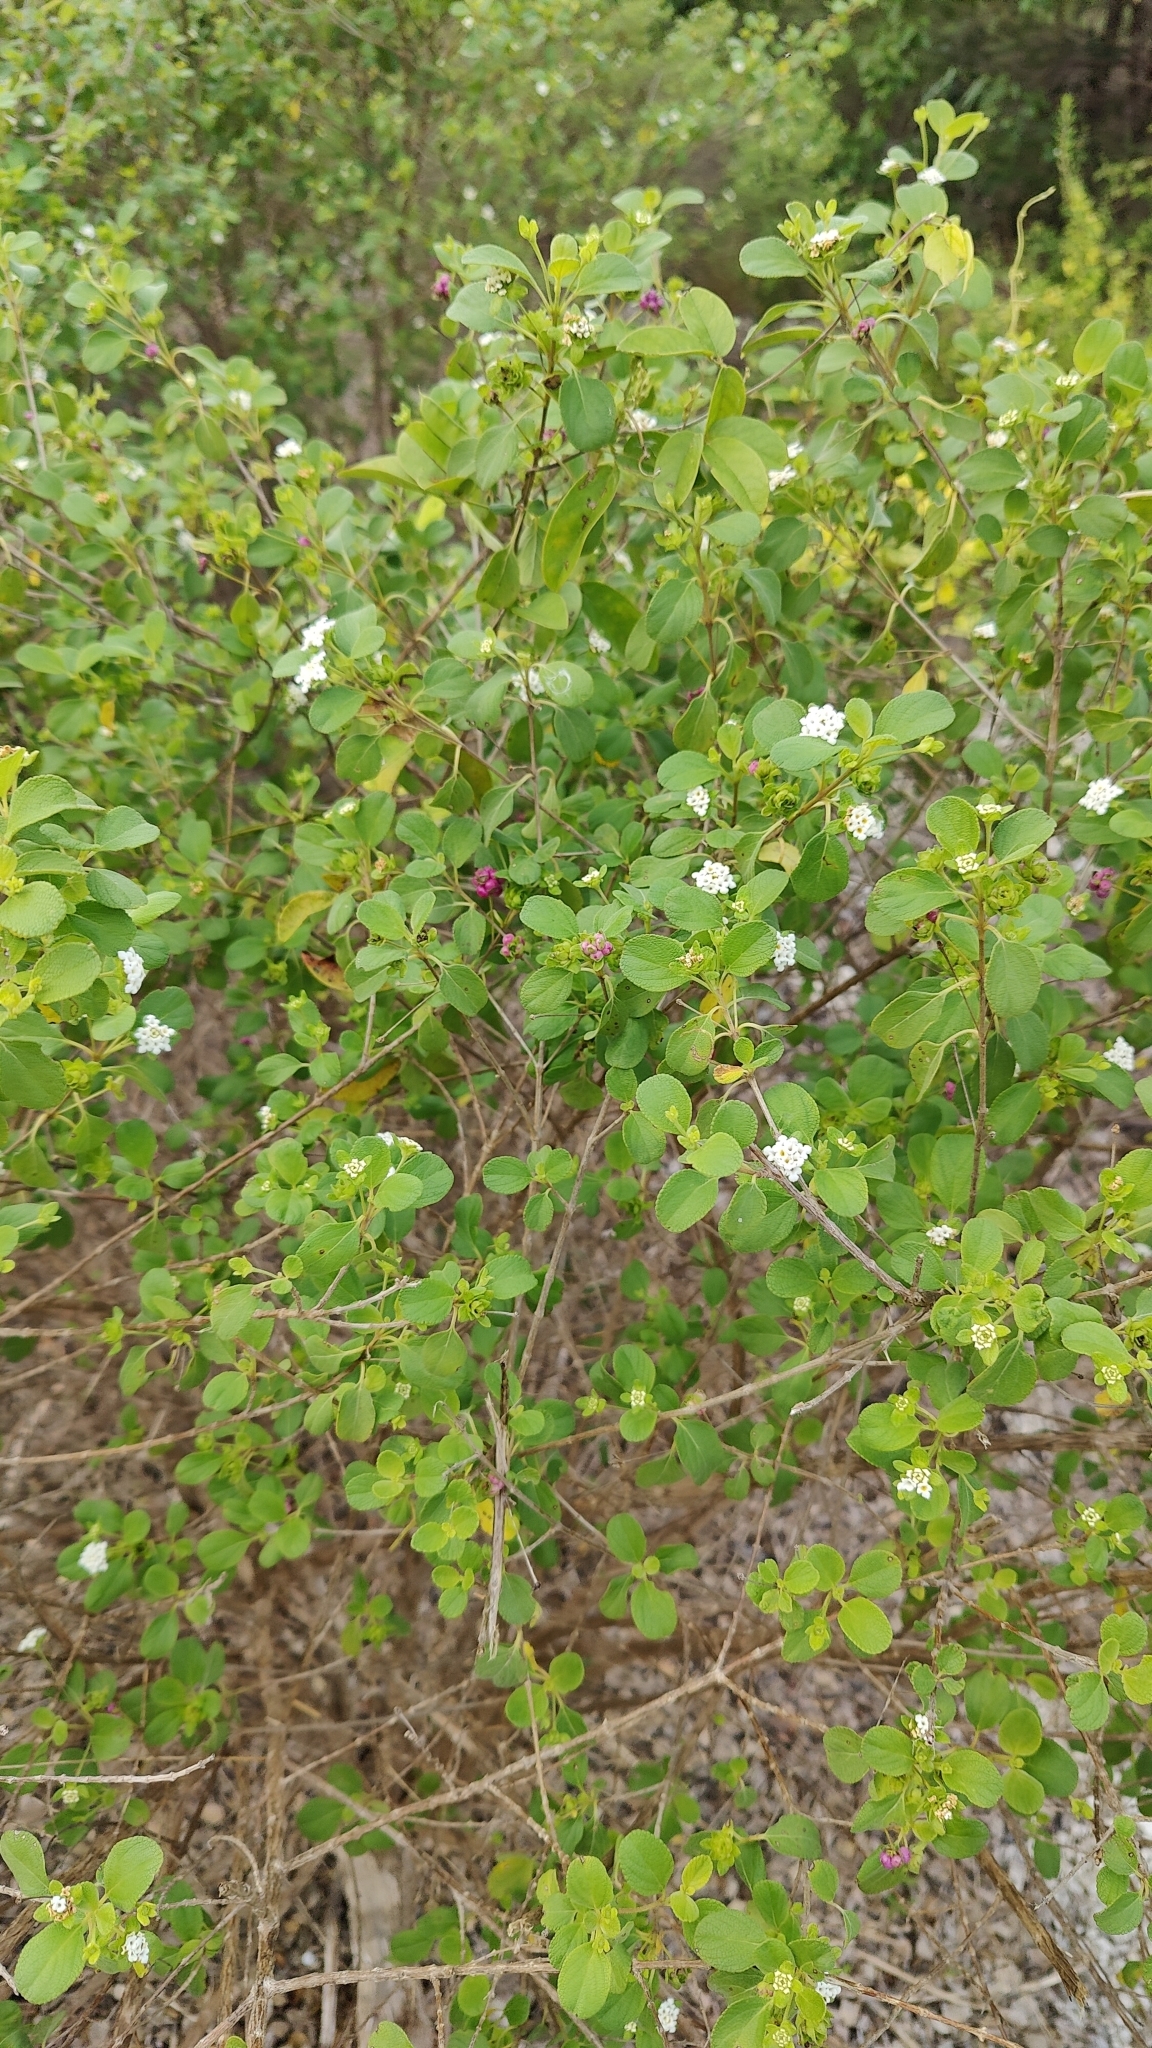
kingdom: Plantae
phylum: Tracheophyta
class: Magnoliopsida
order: Lamiales
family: Verbenaceae
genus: Lantana
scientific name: Lantana involucrata
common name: Black sage
